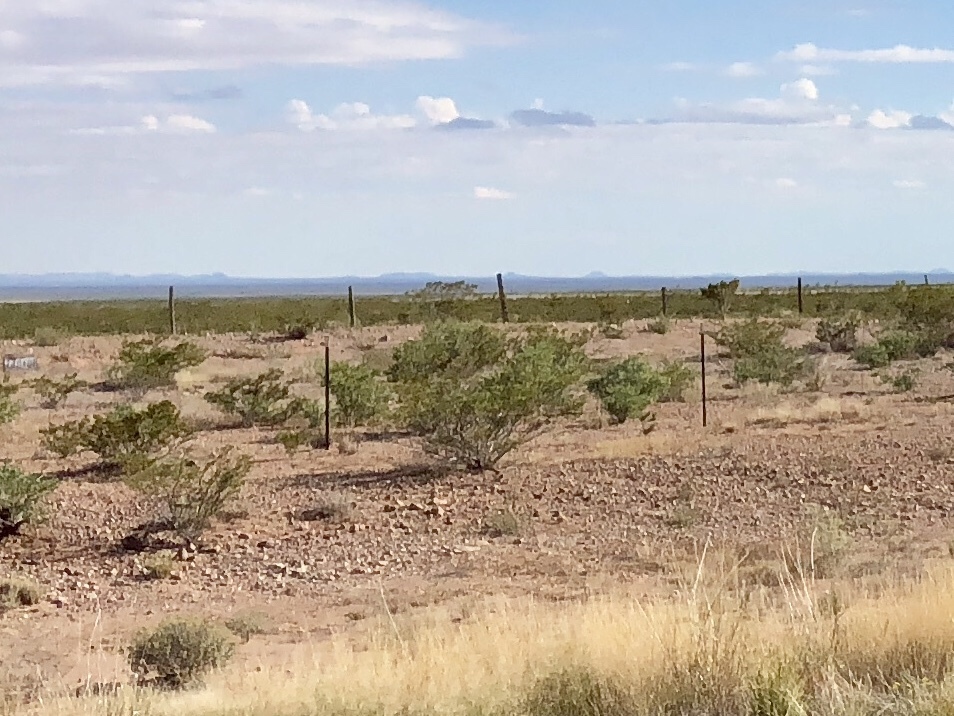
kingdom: Plantae
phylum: Tracheophyta
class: Magnoliopsida
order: Zygophyllales
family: Zygophyllaceae
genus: Larrea
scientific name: Larrea tridentata
